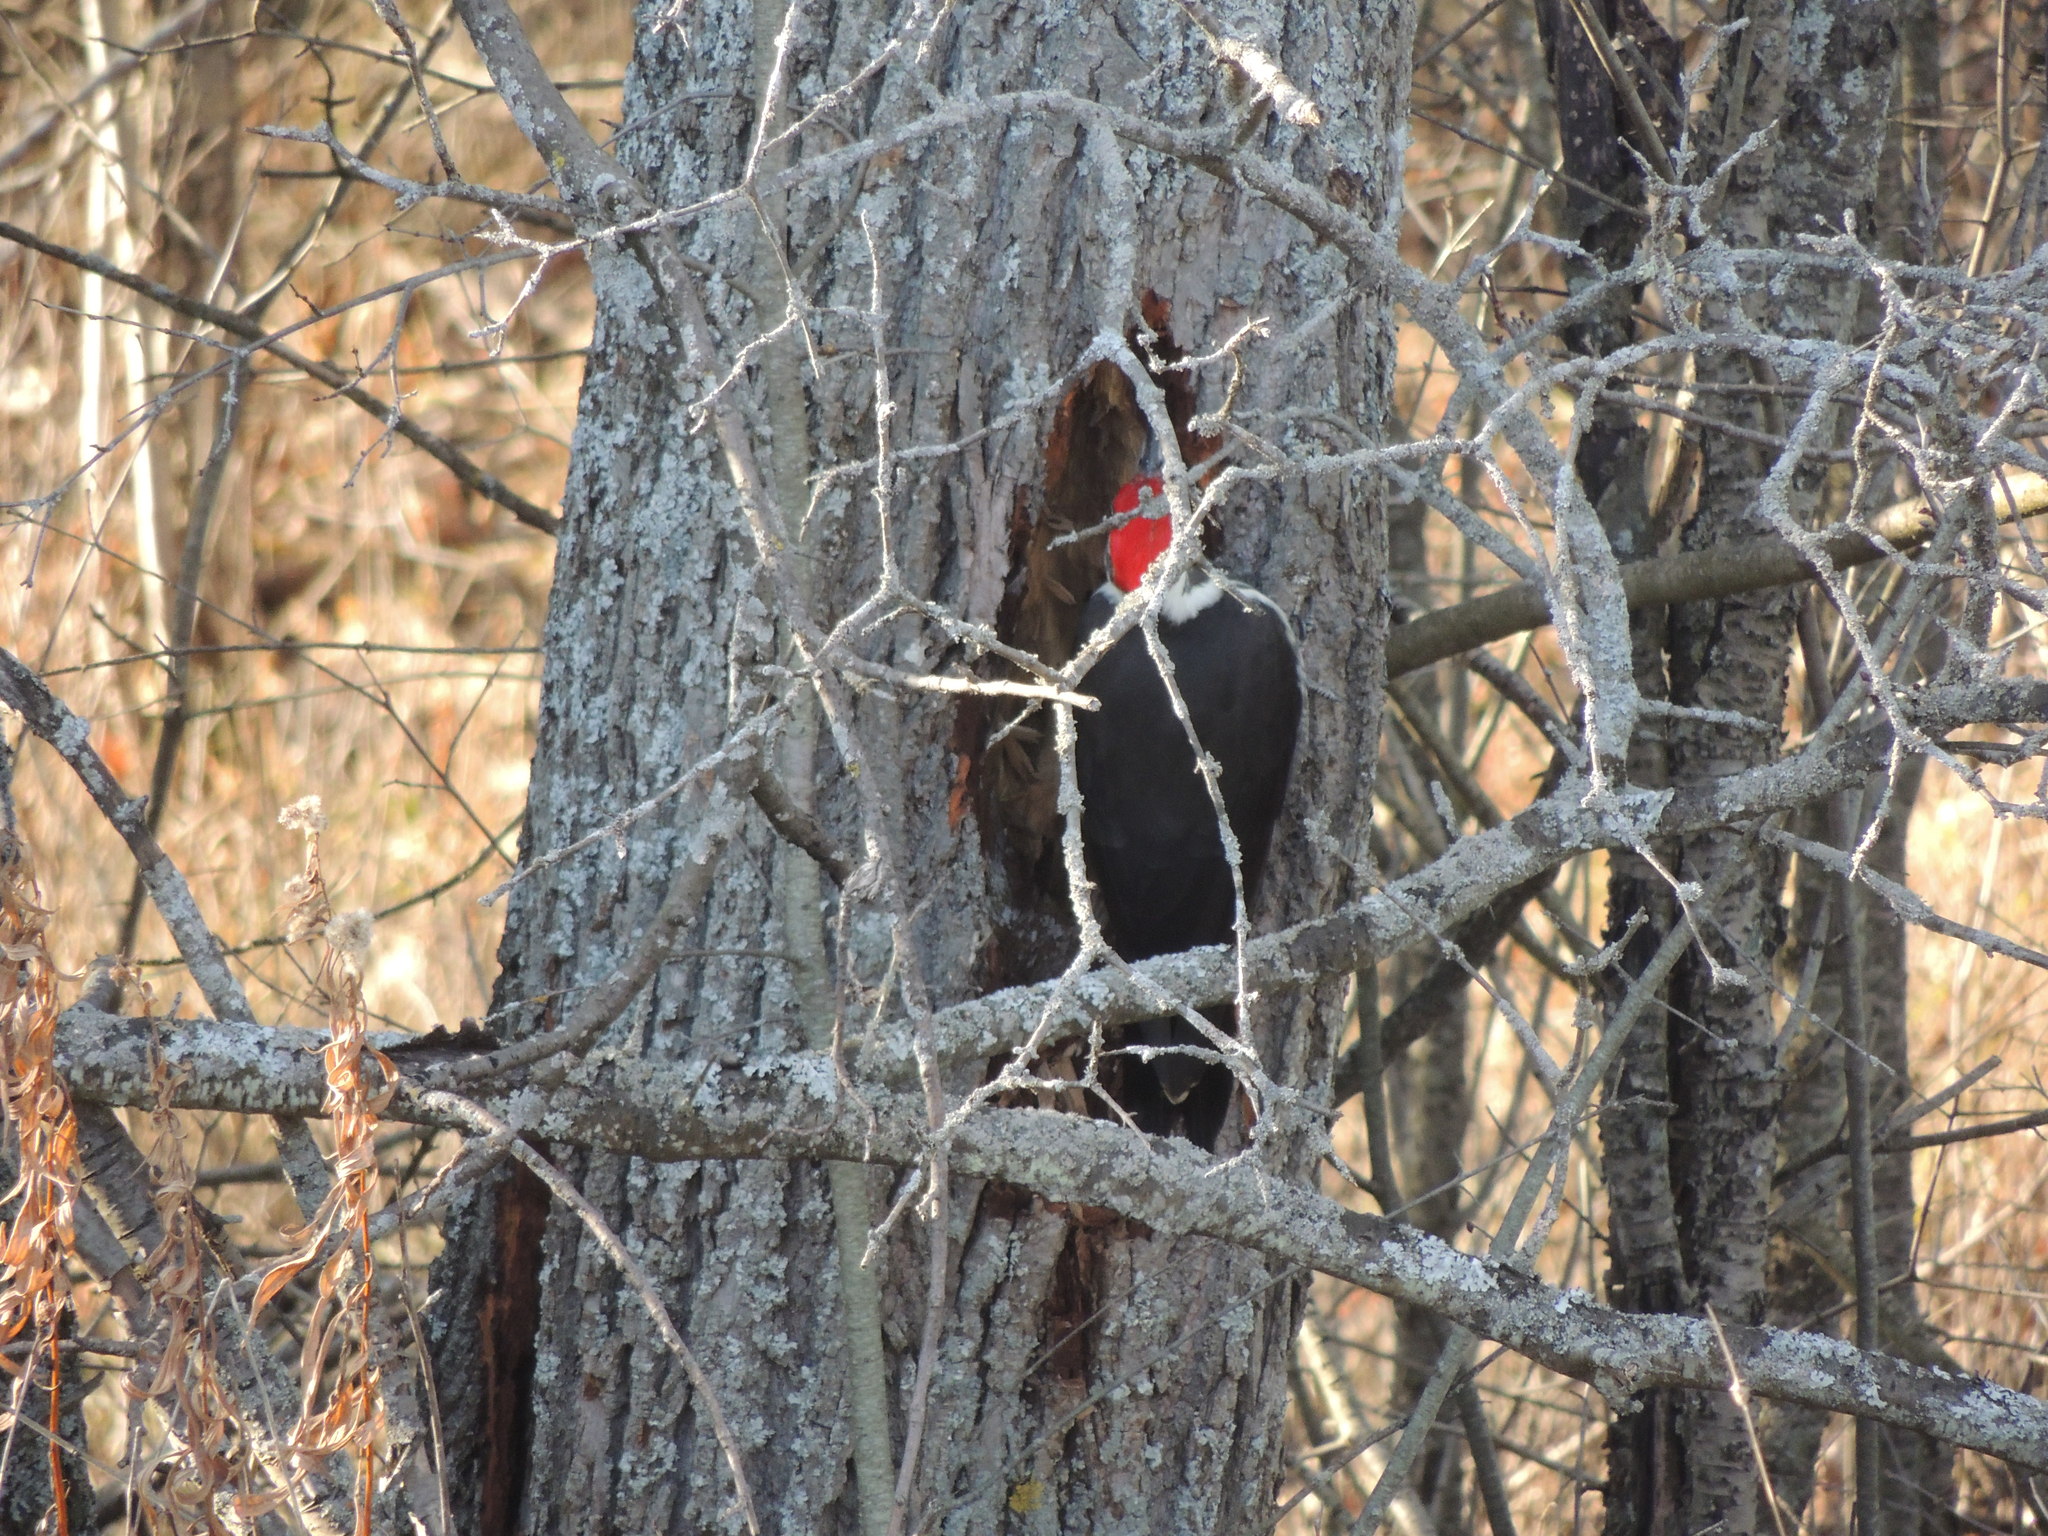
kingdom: Animalia
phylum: Chordata
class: Aves
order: Piciformes
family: Picidae
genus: Dryocopus
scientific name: Dryocopus pileatus
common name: Pileated woodpecker
